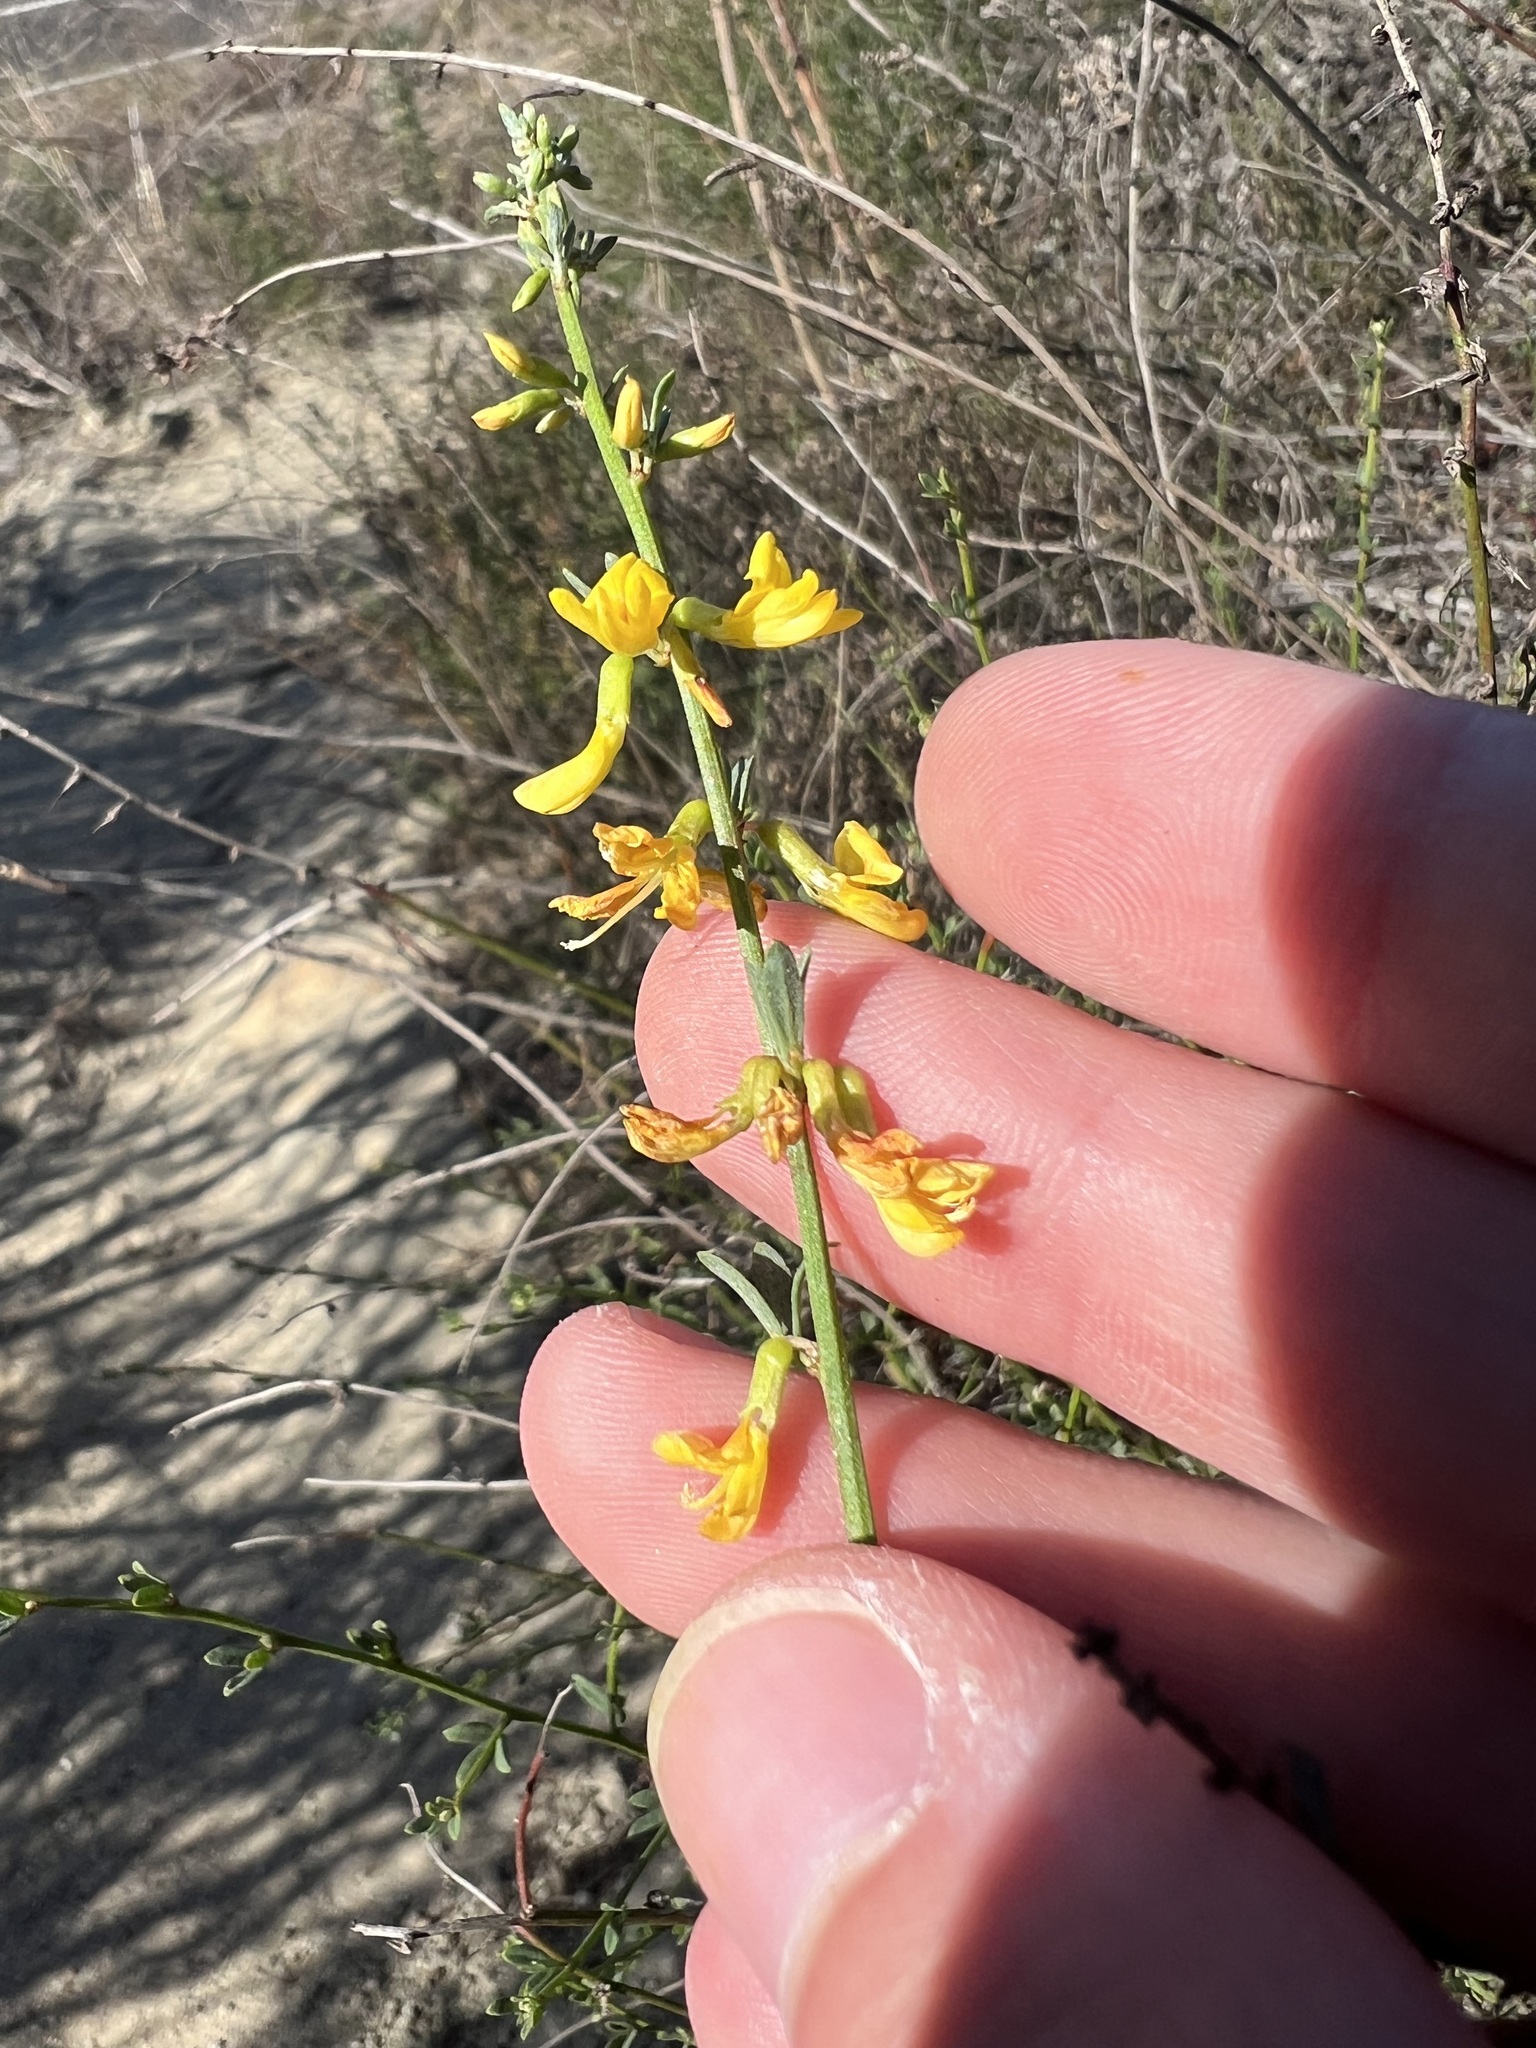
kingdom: Plantae
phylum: Tracheophyta
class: Magnoliopsida
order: Fabales
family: Fabaceae
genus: Acmispon
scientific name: Acmispon glaber
